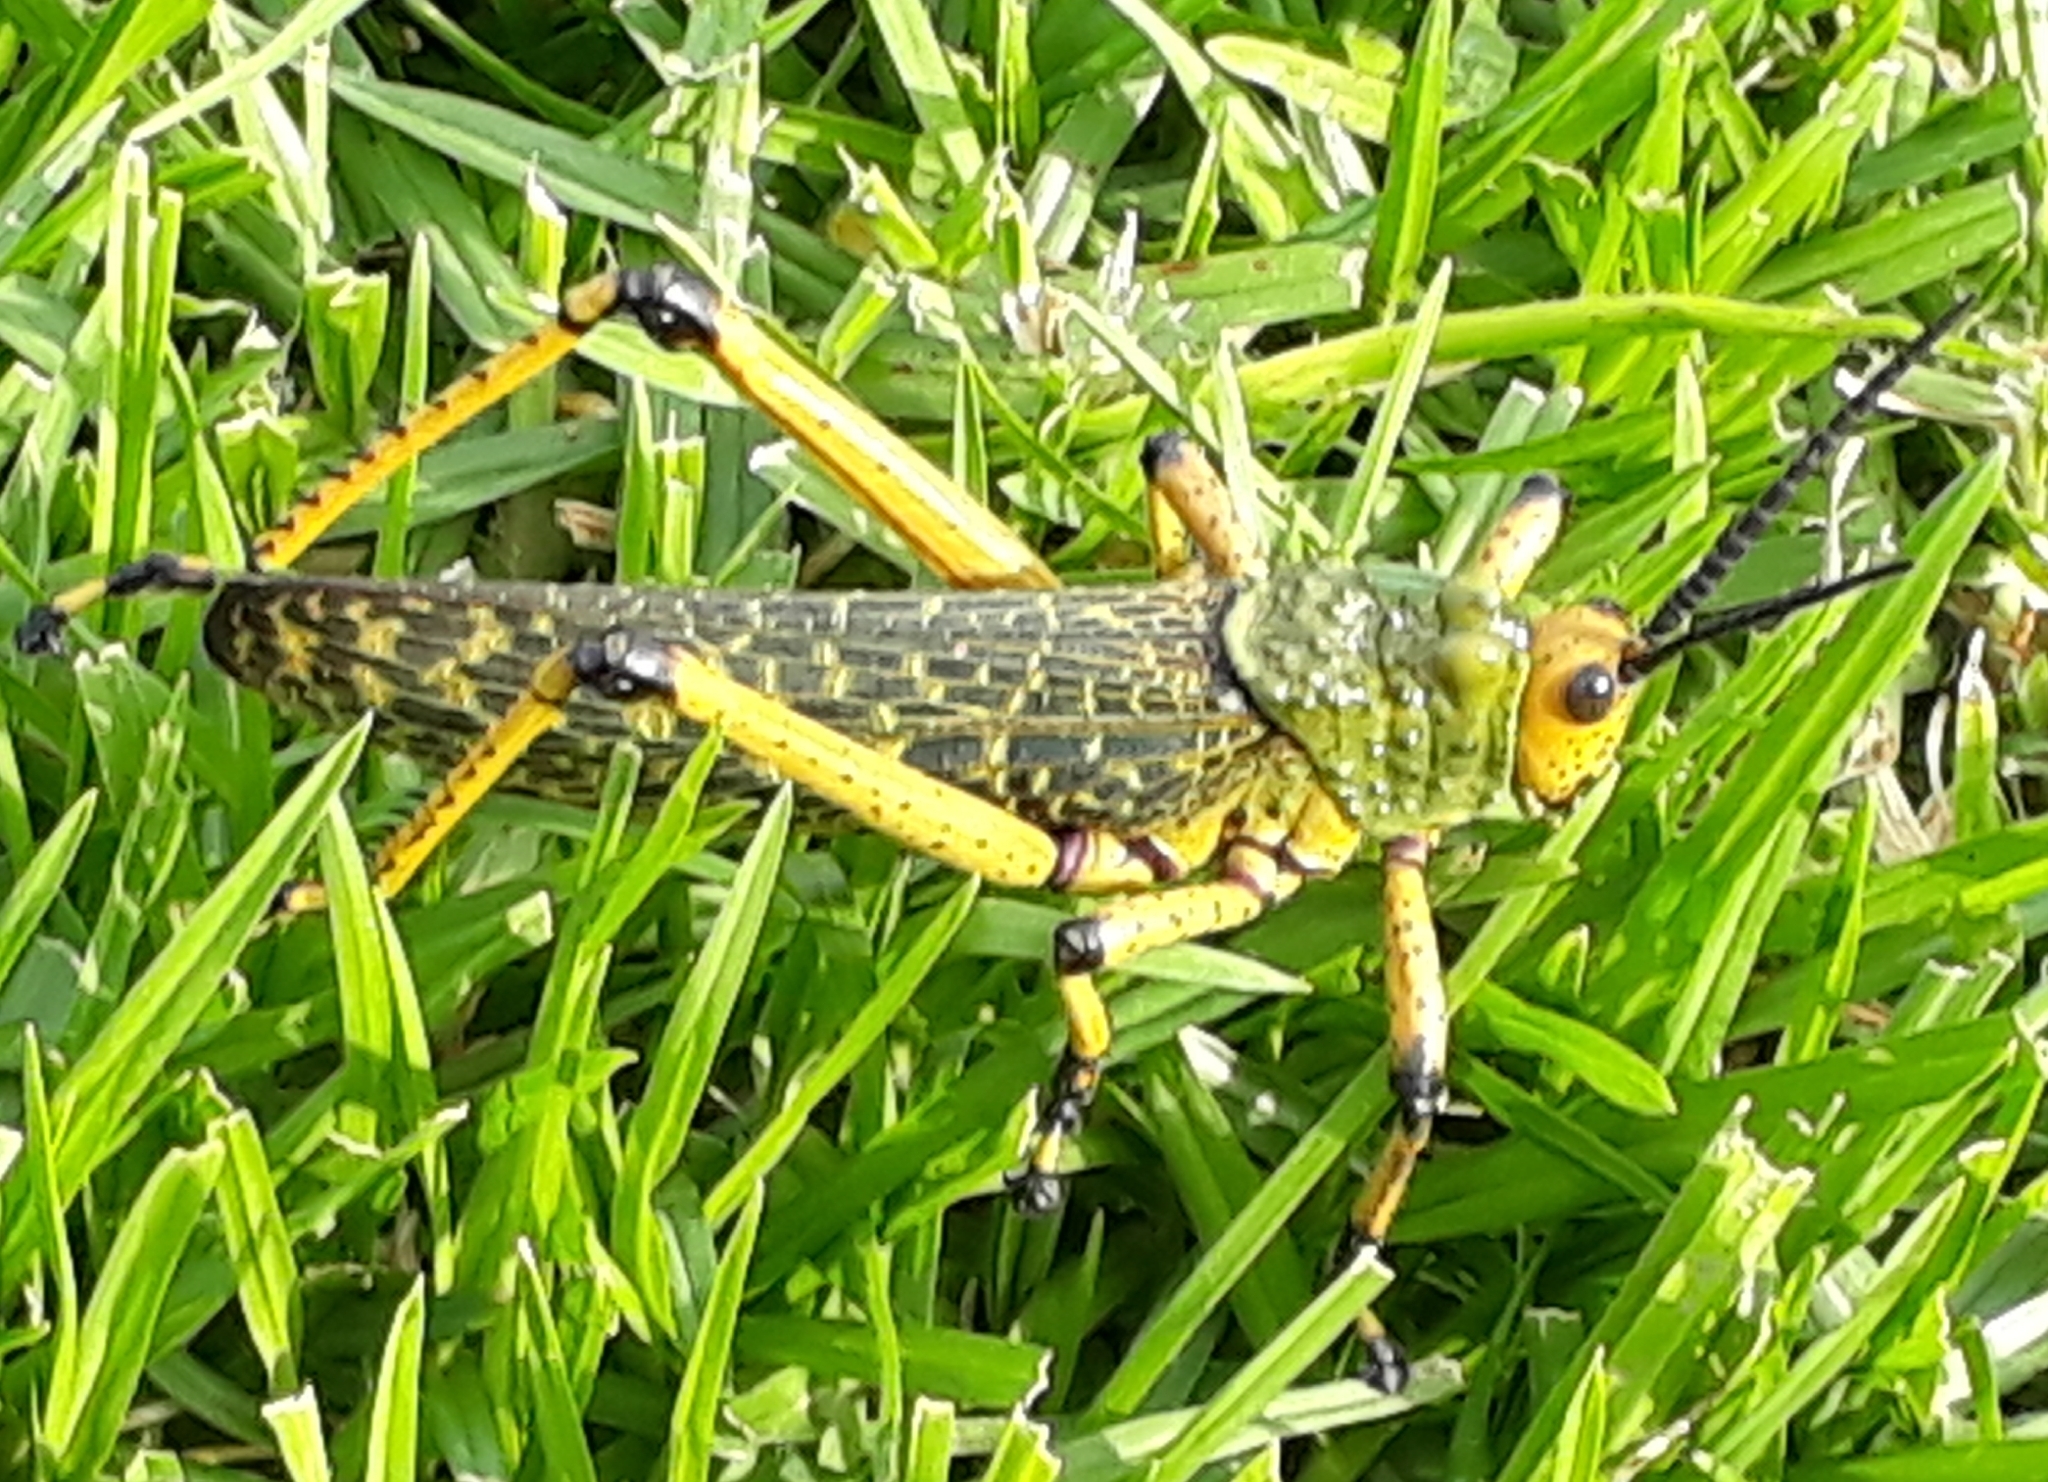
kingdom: Animalia
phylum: Arthropoda
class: Insecta
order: Orthoptera
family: Pyrgomorphidae
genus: Phymateus
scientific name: Phymateus leprosus
